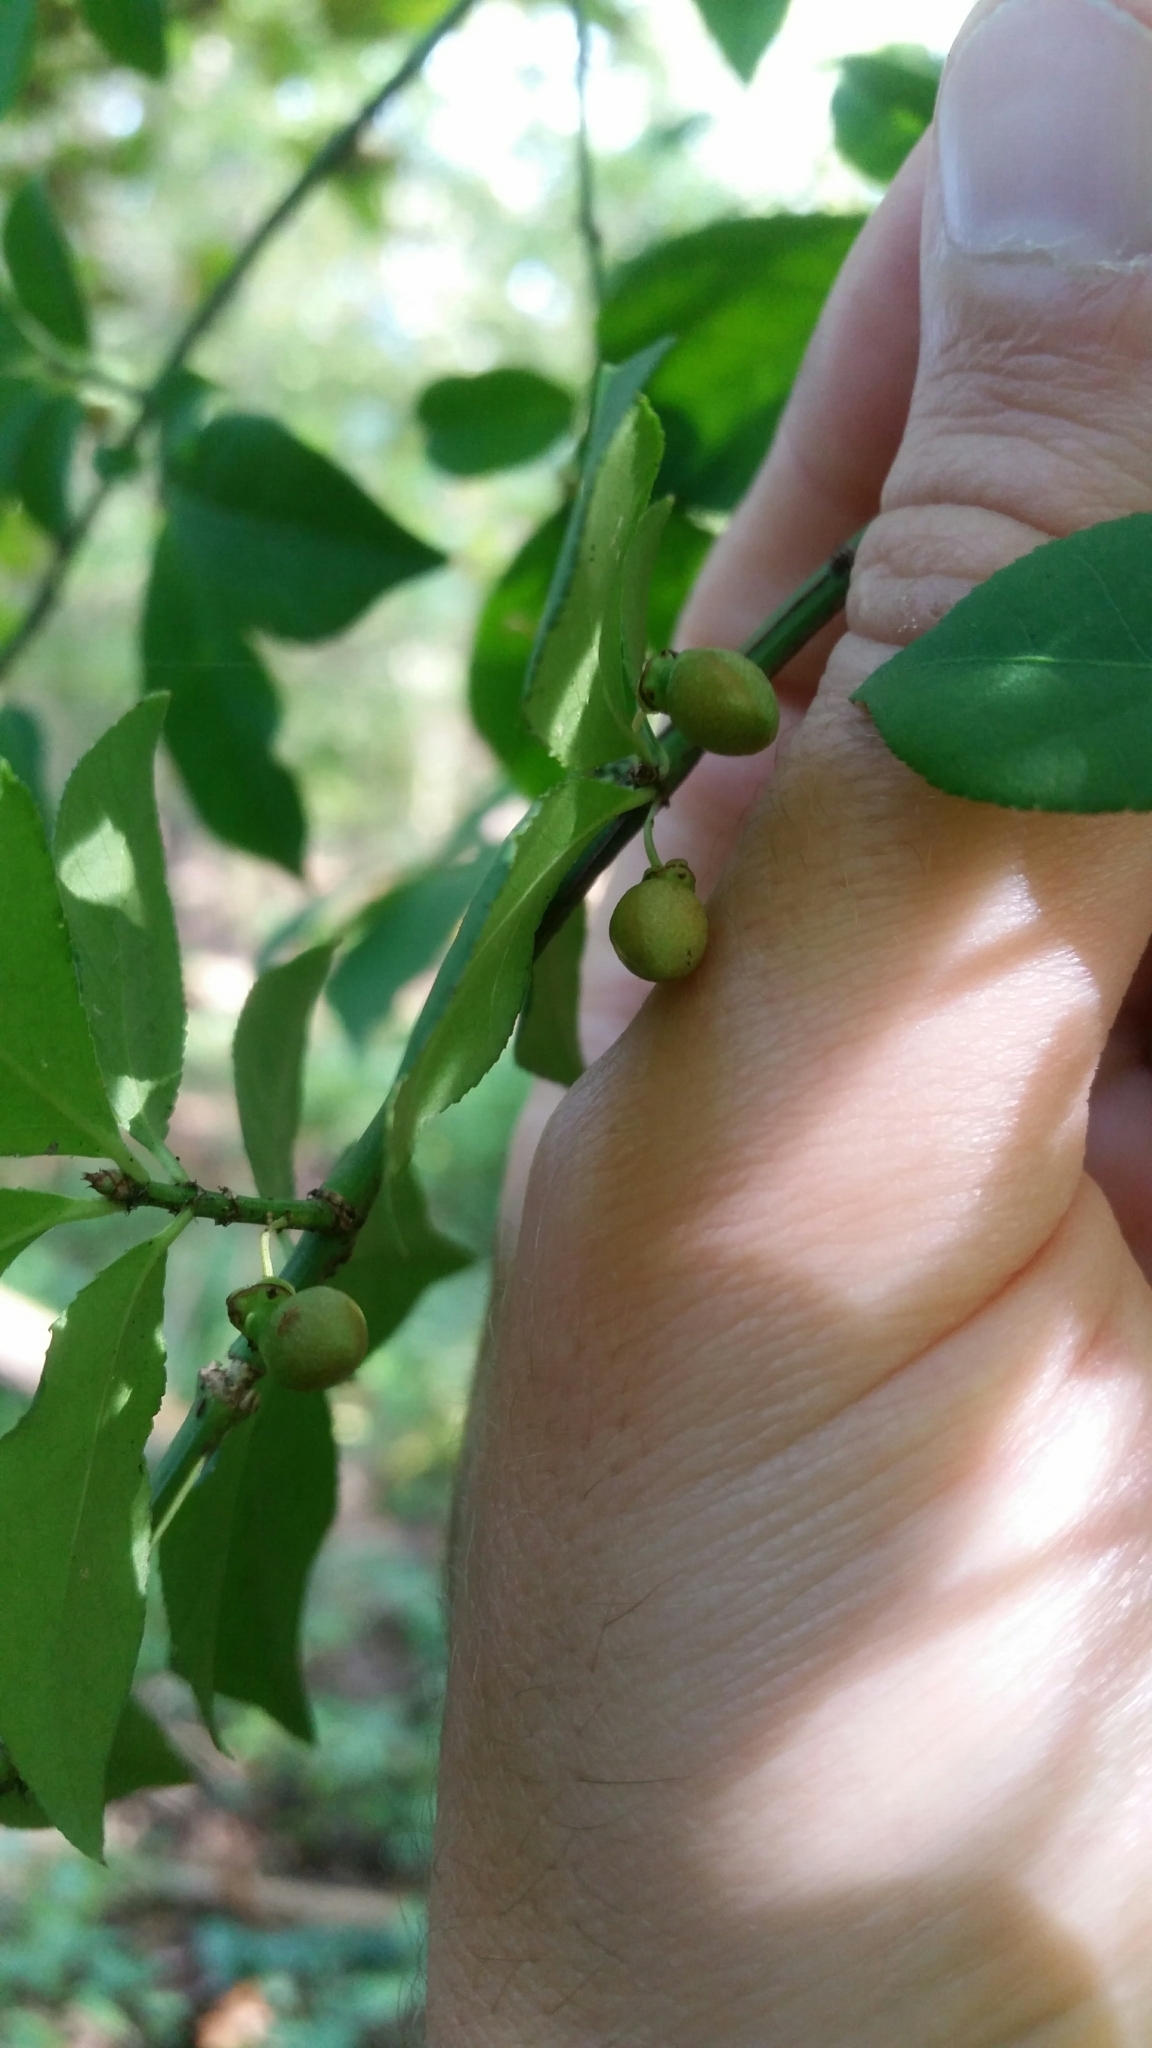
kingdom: Plantae
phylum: Tracheophyta
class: Magnoliopsida
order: Celastrales
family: Celastraceae
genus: Euonymus
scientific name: Euonymus alatus
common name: Winged euonymus
